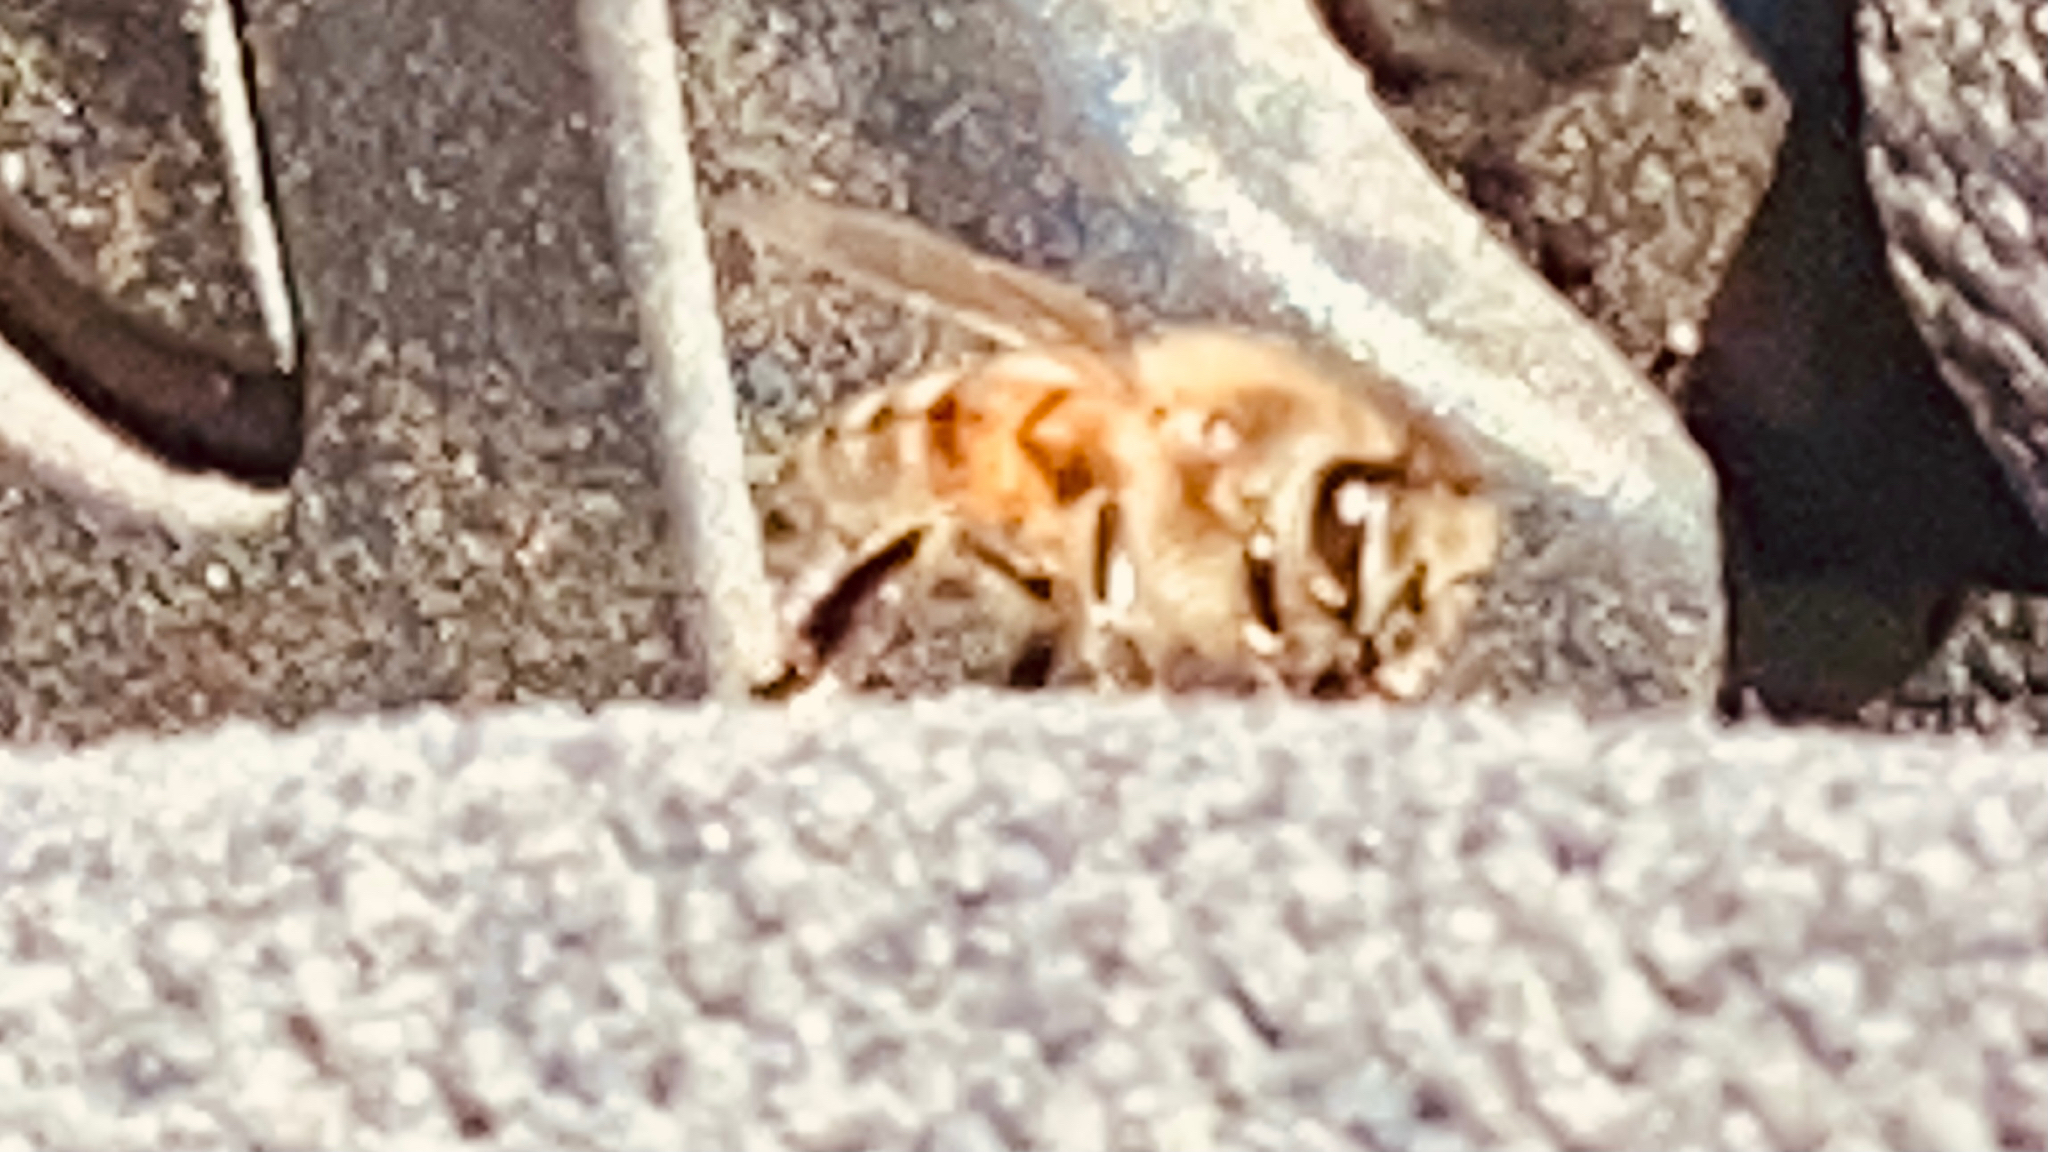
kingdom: Animalia
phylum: Arthropoda
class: Insecta
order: Hymenoptera
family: Apidae
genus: Apis
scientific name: Apis mellifera
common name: Honey bee
